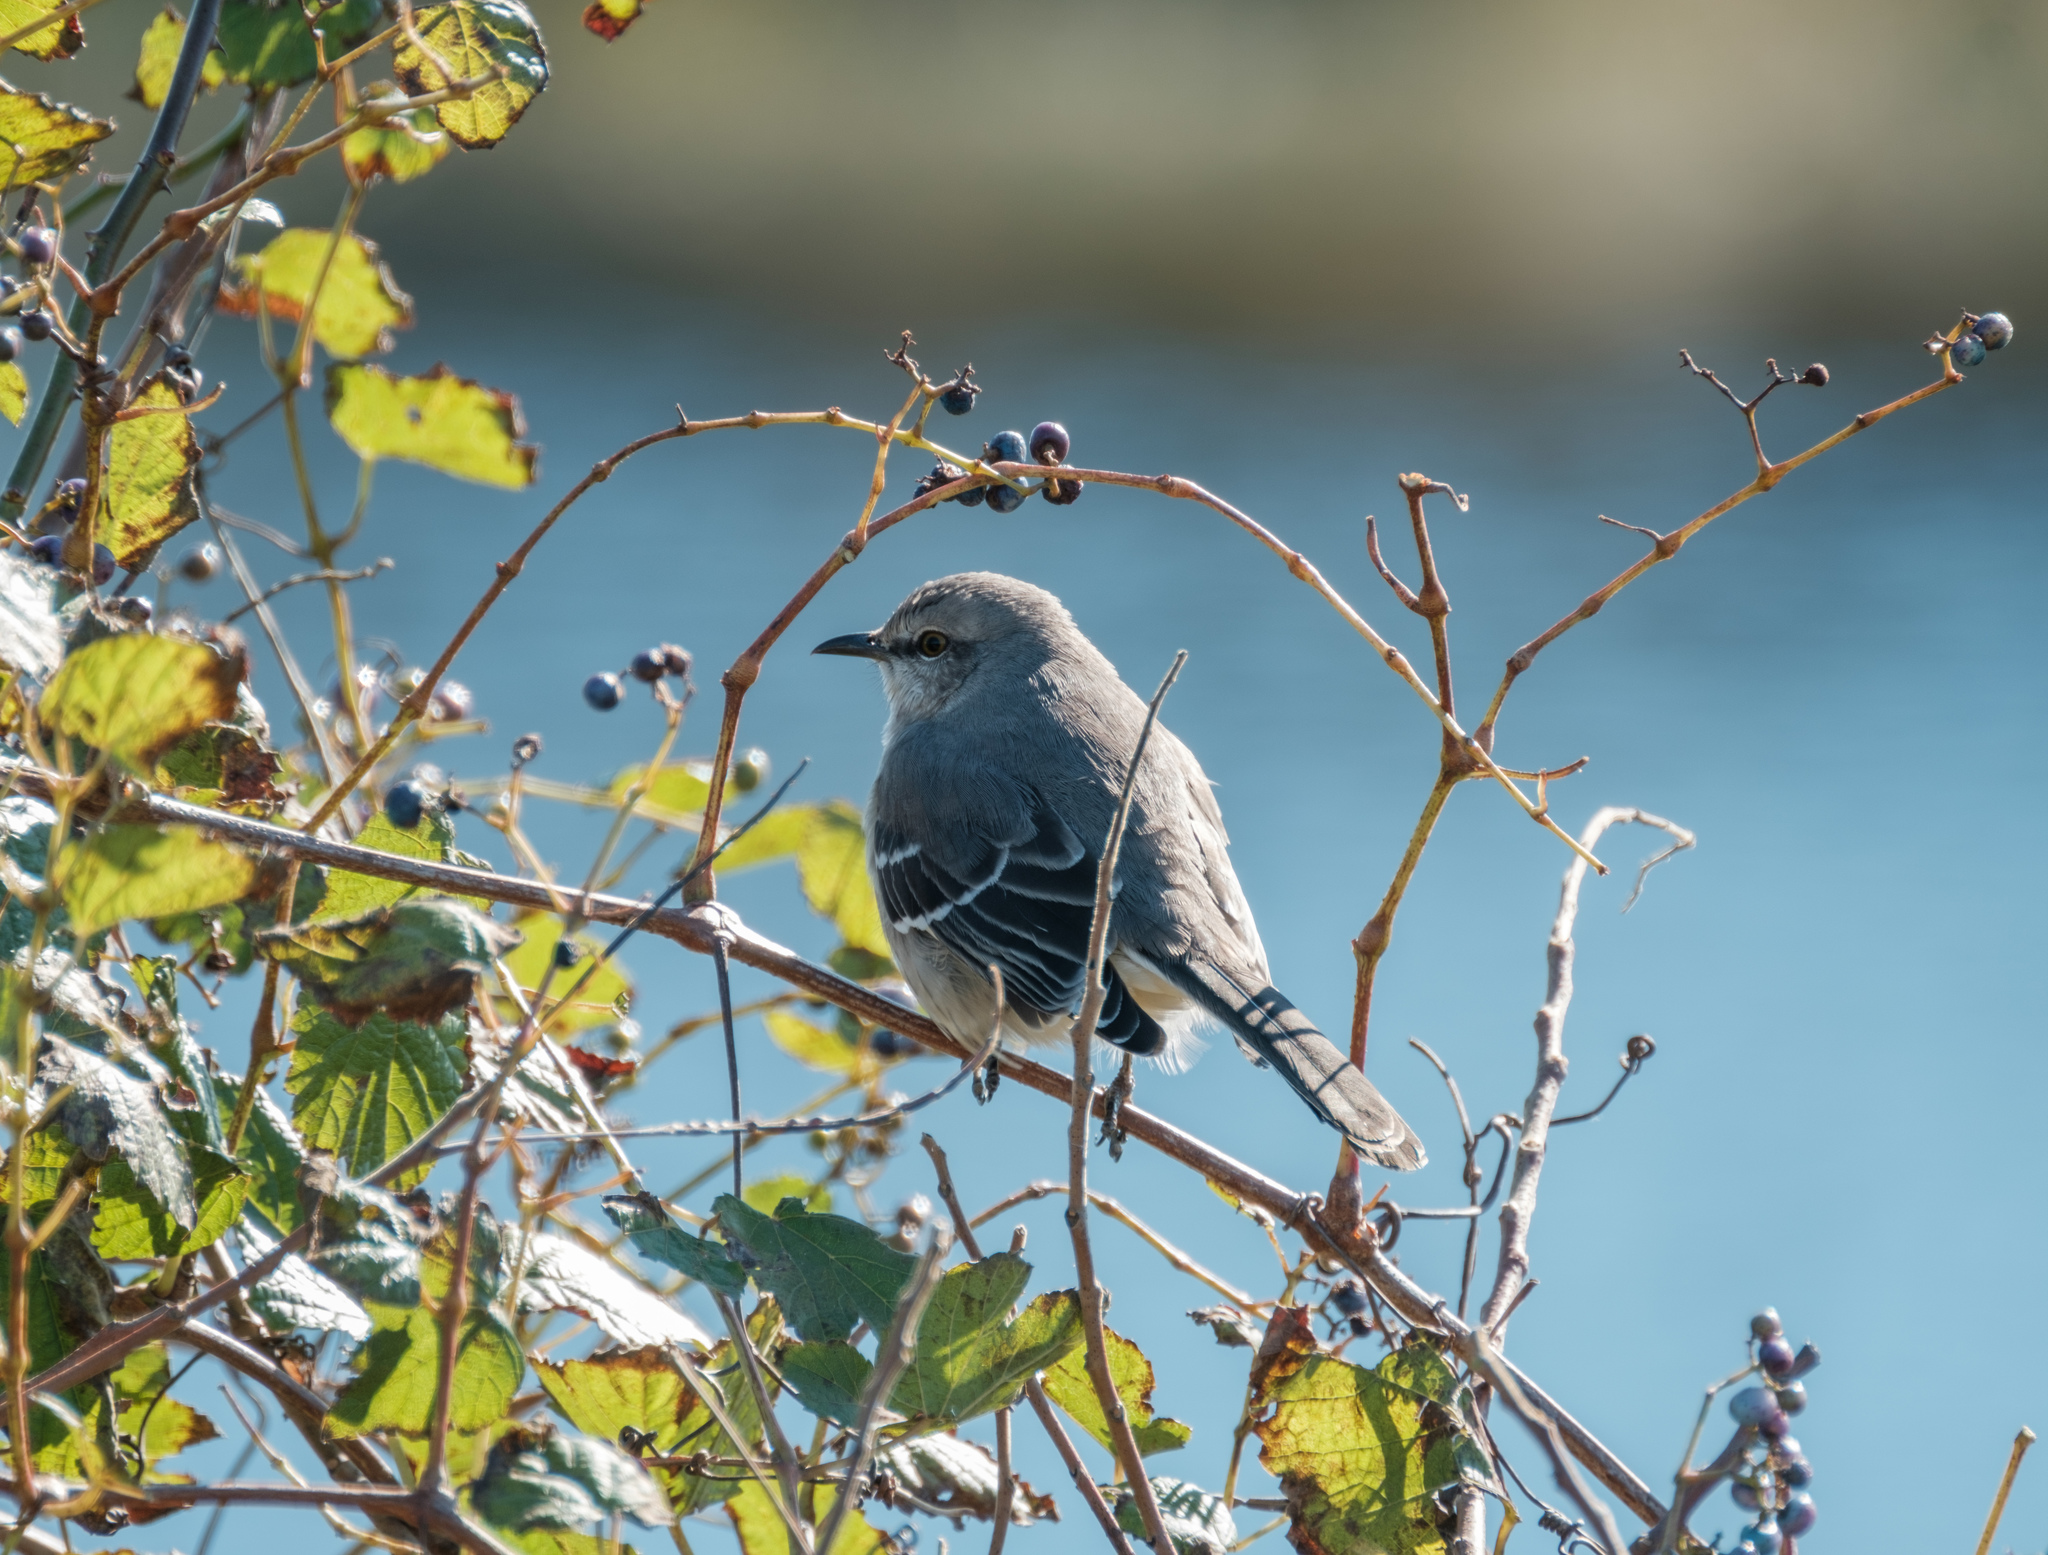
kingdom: Plantae
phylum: Tracheophyta
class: Magnoliopsida
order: Vitales
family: Vitaceae
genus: Ampelopsis
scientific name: Ampelopsis glandulosa
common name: Amur peppervine
